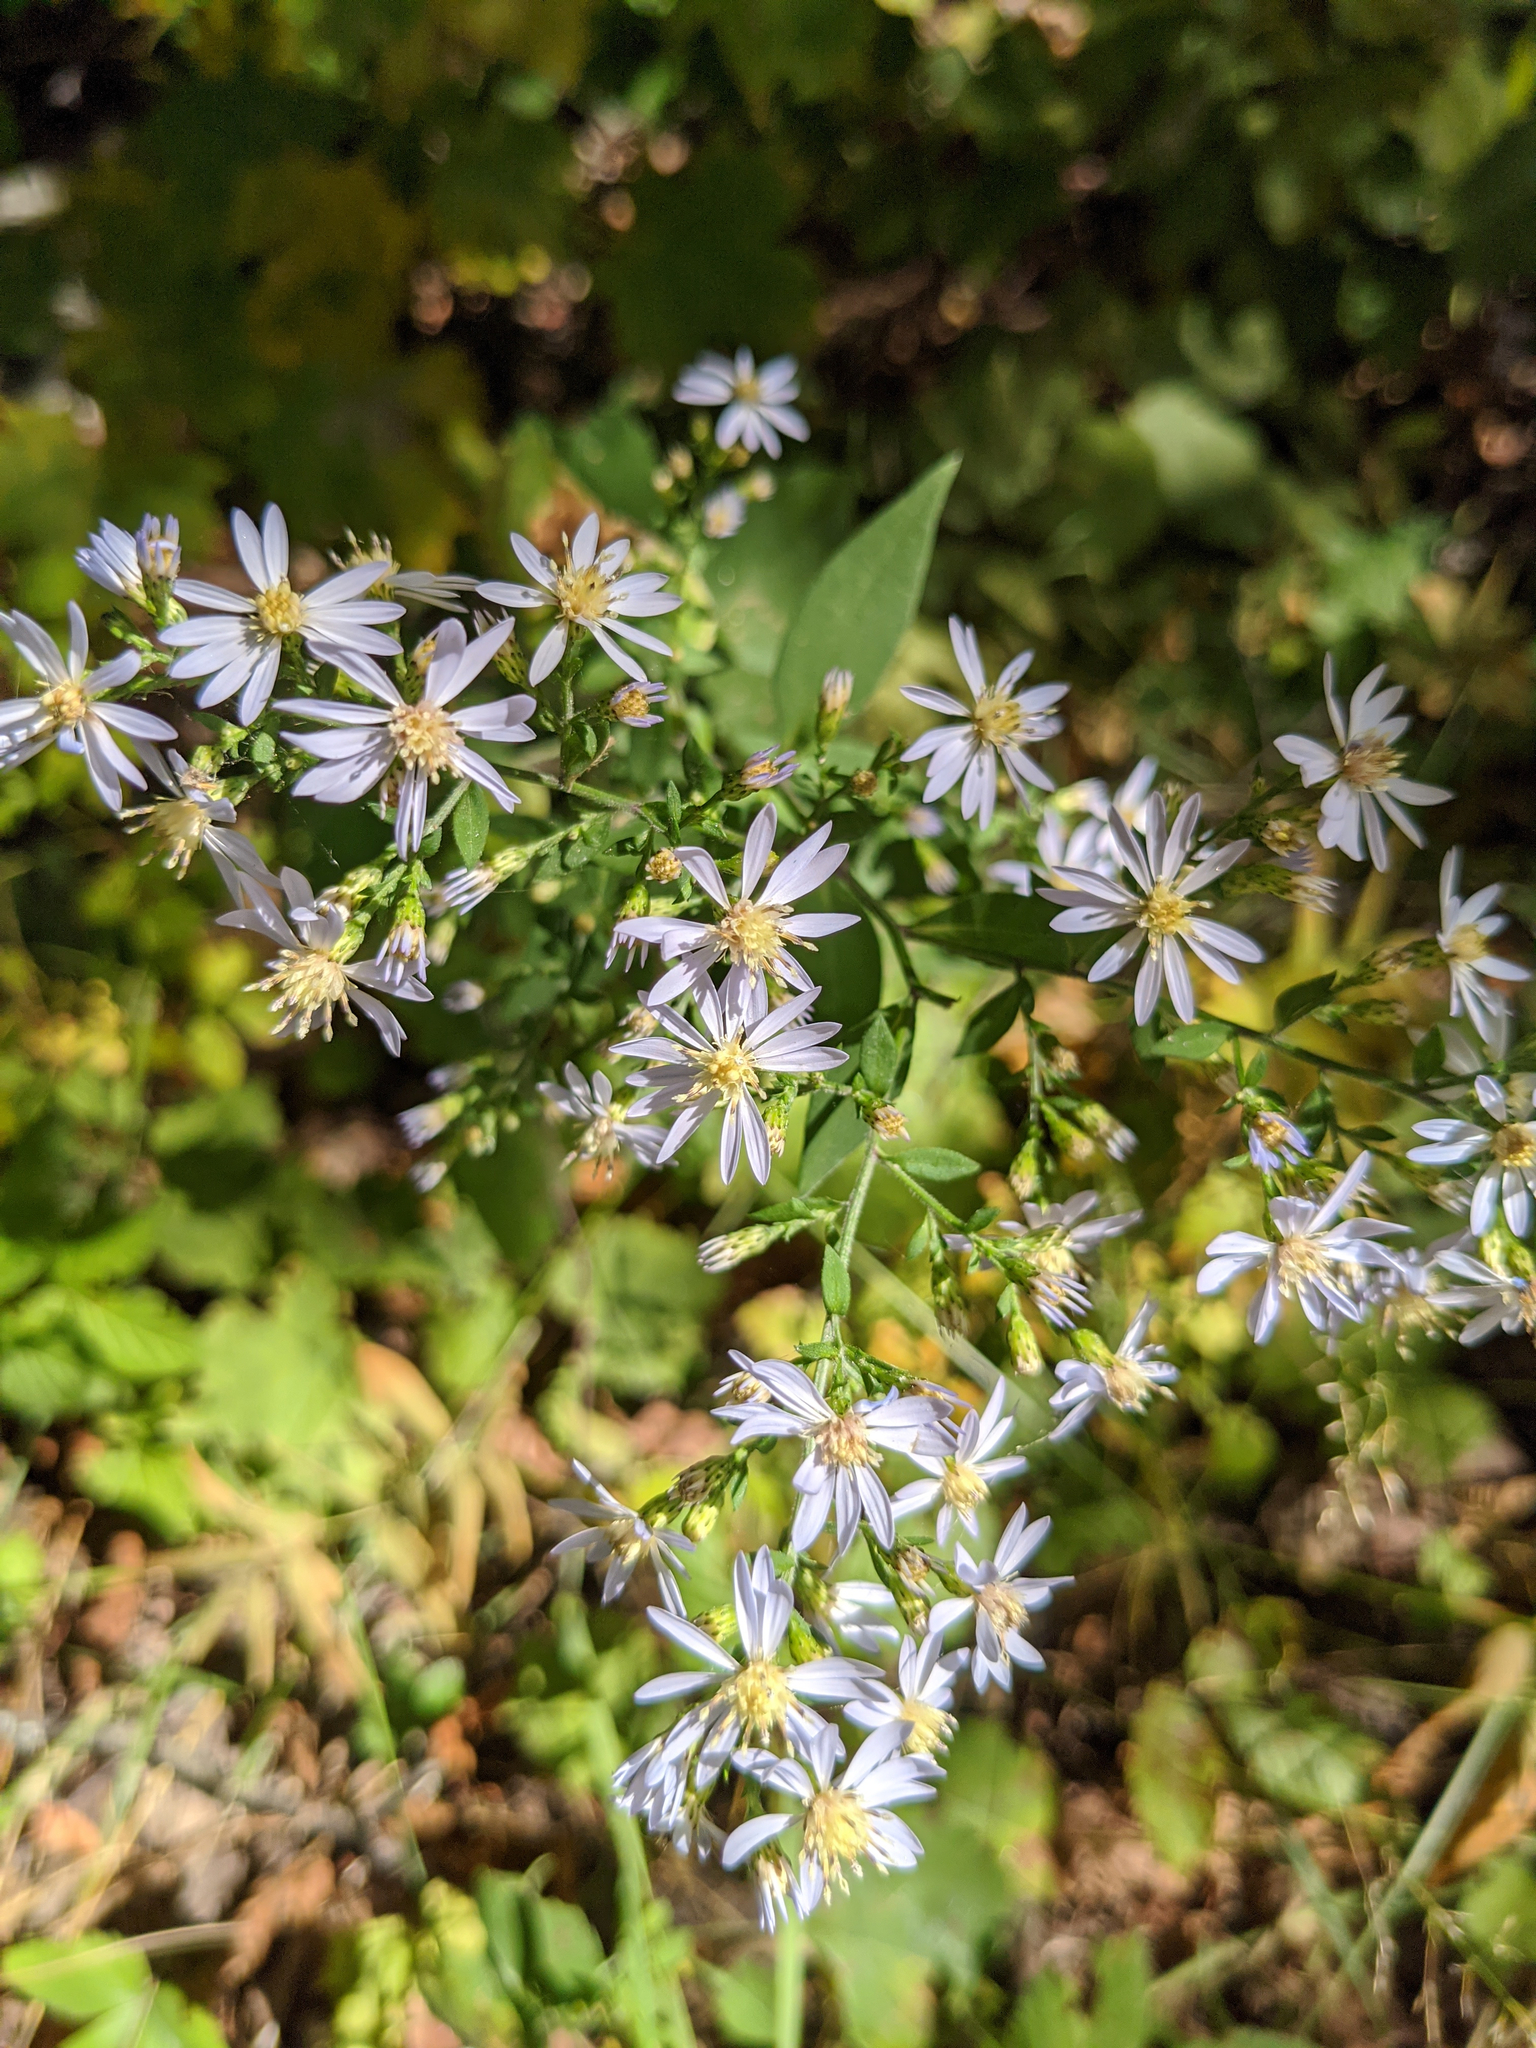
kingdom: Plantae
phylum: Tracheophyta
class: Magnoliopsida
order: Asterales
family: Asteraceae
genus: Symphyotrichum
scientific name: Symphyotrichum cordifolium
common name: Beeweed
